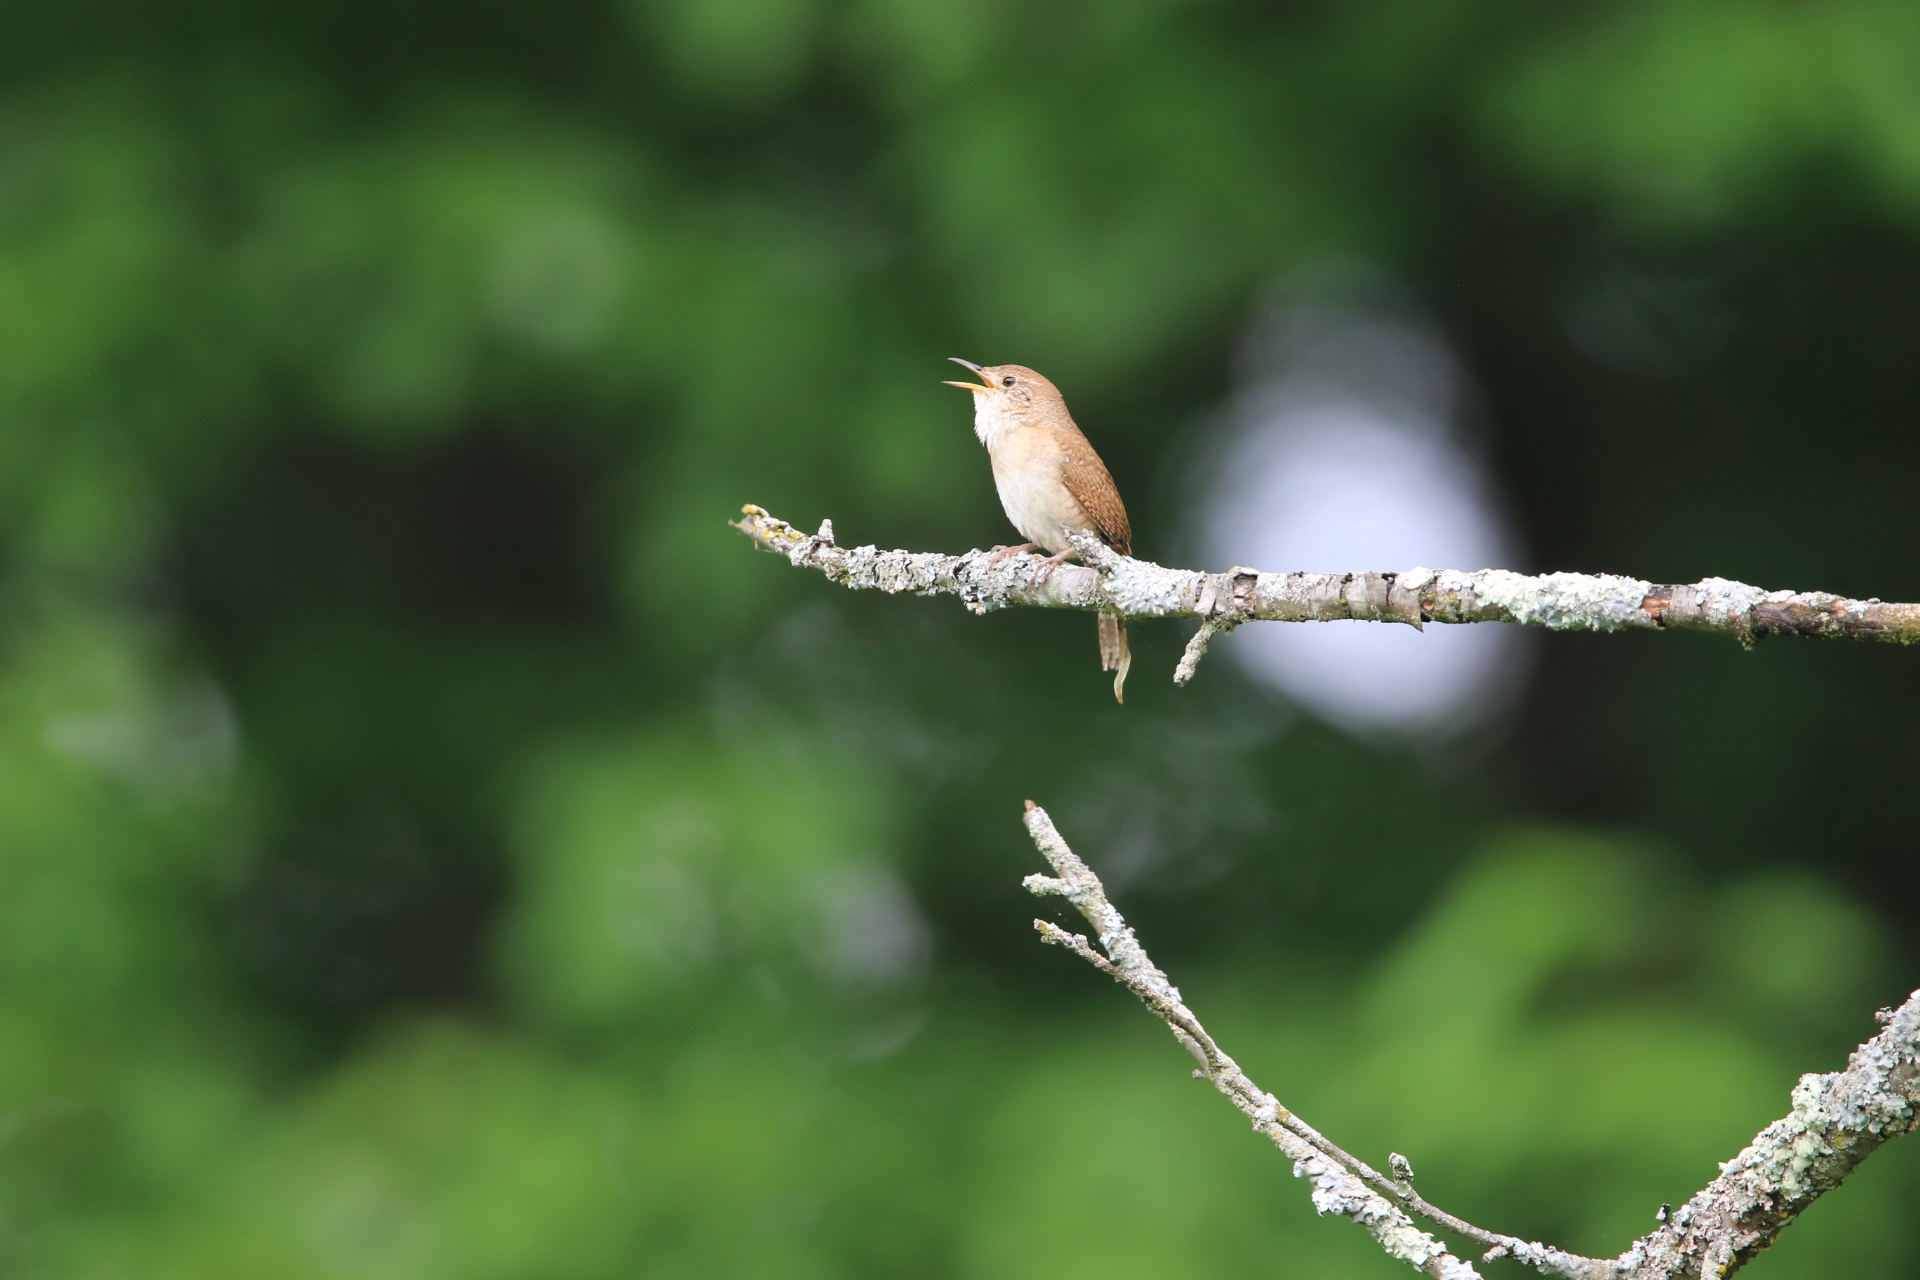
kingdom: Animalia
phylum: Chordata
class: Aves
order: Passeriformes
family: Troglodytidae
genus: Troglodytes
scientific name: Troglodytes aedon
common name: House wren
